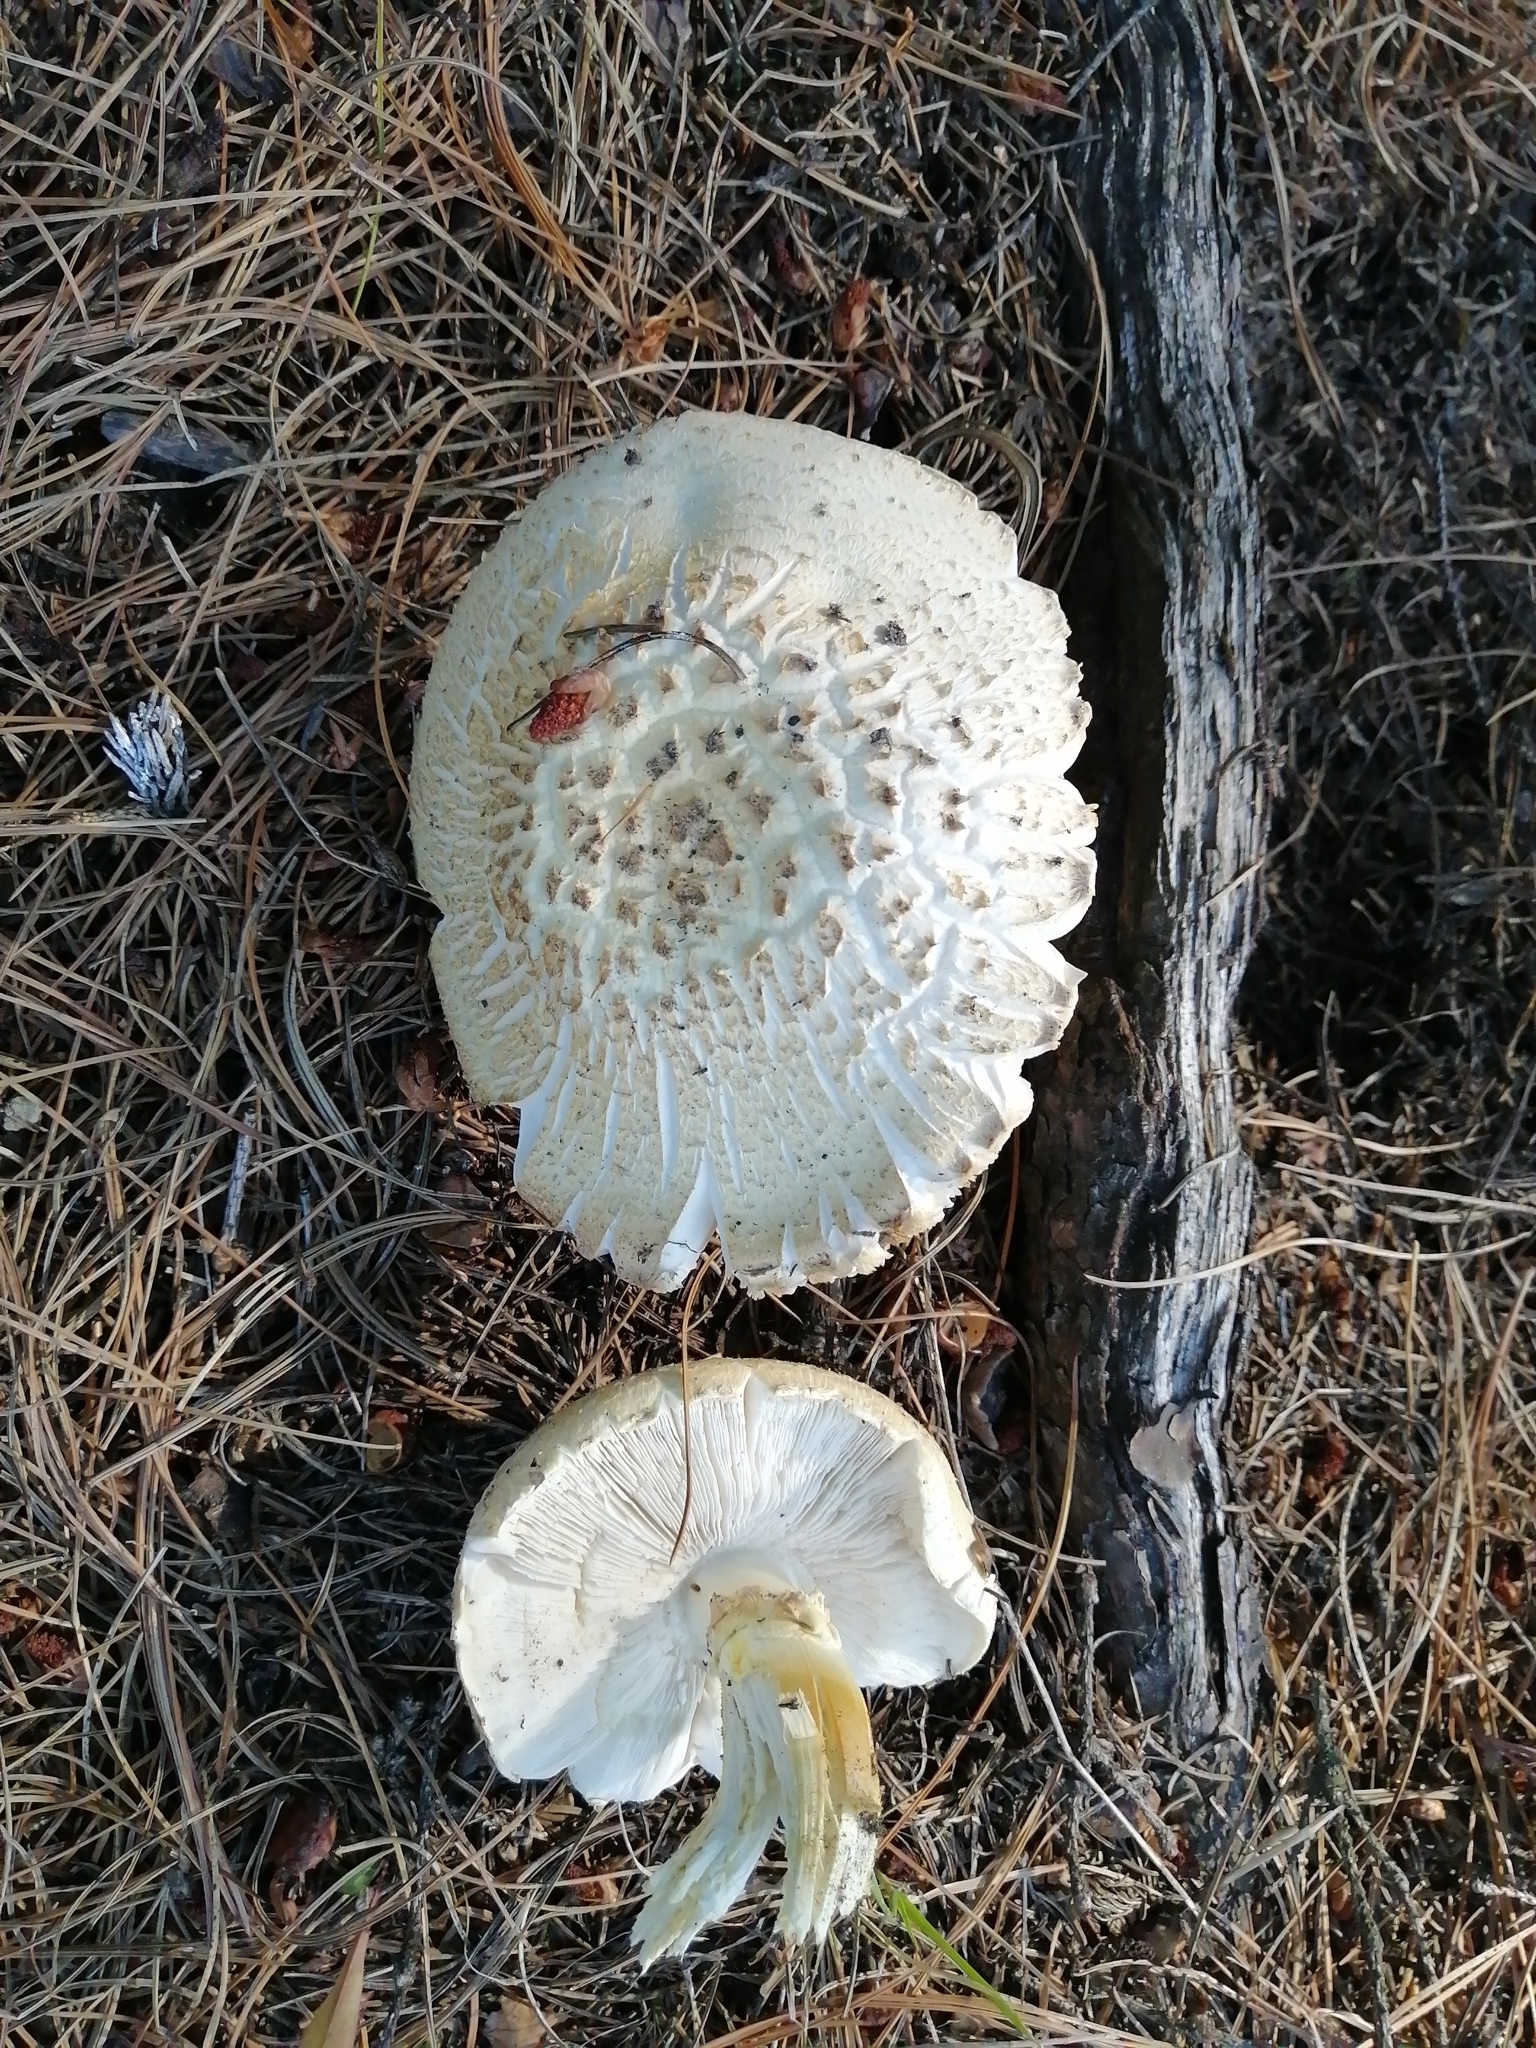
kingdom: Fungi
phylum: Basidiomycota
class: Agaricomycetes
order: Gloeophyllales
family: Gloeophyllaceae
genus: Neolentinus
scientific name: Neolentinus lepideus
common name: Scaly sawgill
